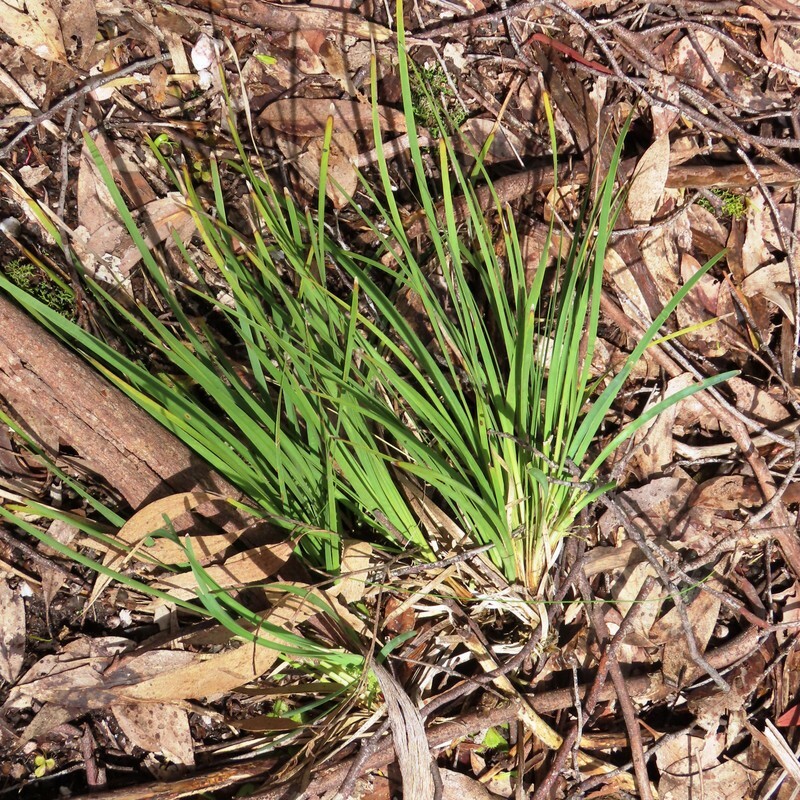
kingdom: Plantae
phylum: Tracheophyta
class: Liliopsida
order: Asparagales
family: Asparagaceae
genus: Lomandra
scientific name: Lomandra filiformis
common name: Wattle mat-rush
